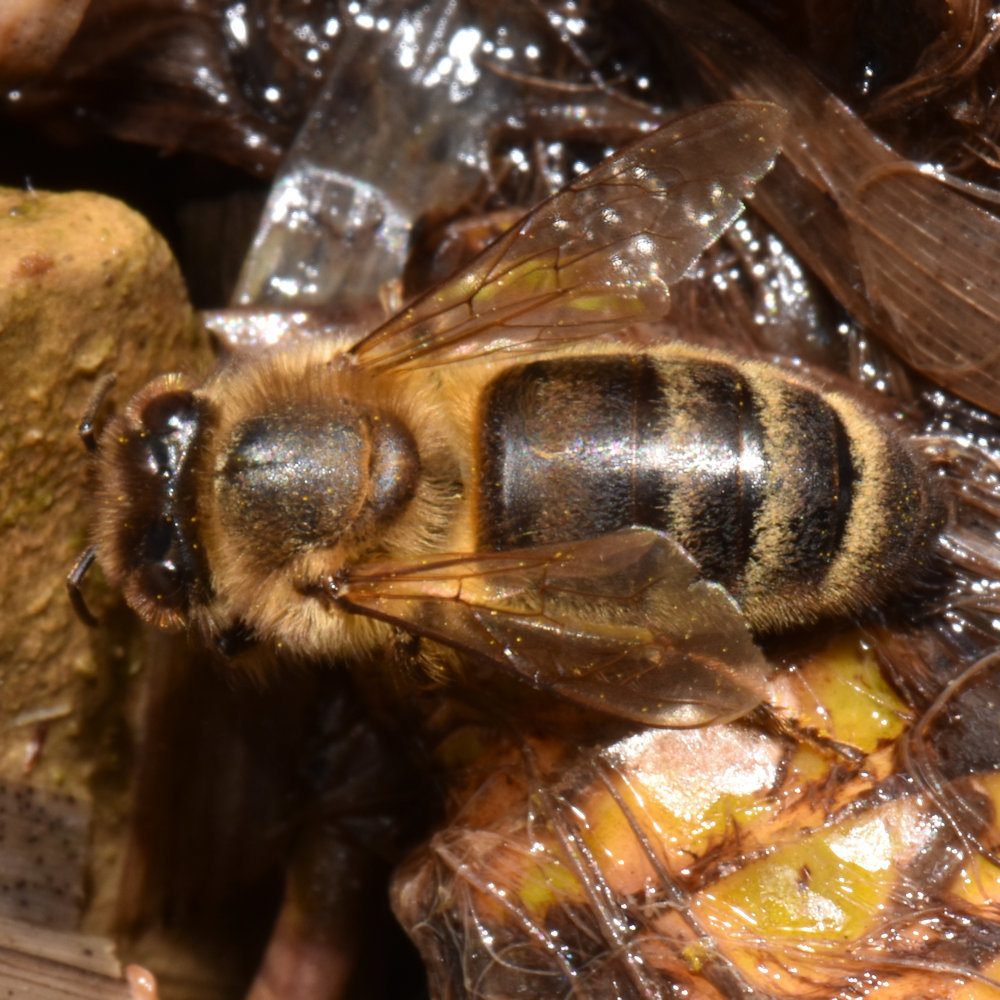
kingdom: Animalia
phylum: Arthropoda
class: Insecta
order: Hymenoptera
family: Apidae
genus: Apis
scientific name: Apis mellifera
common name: Honey bee
